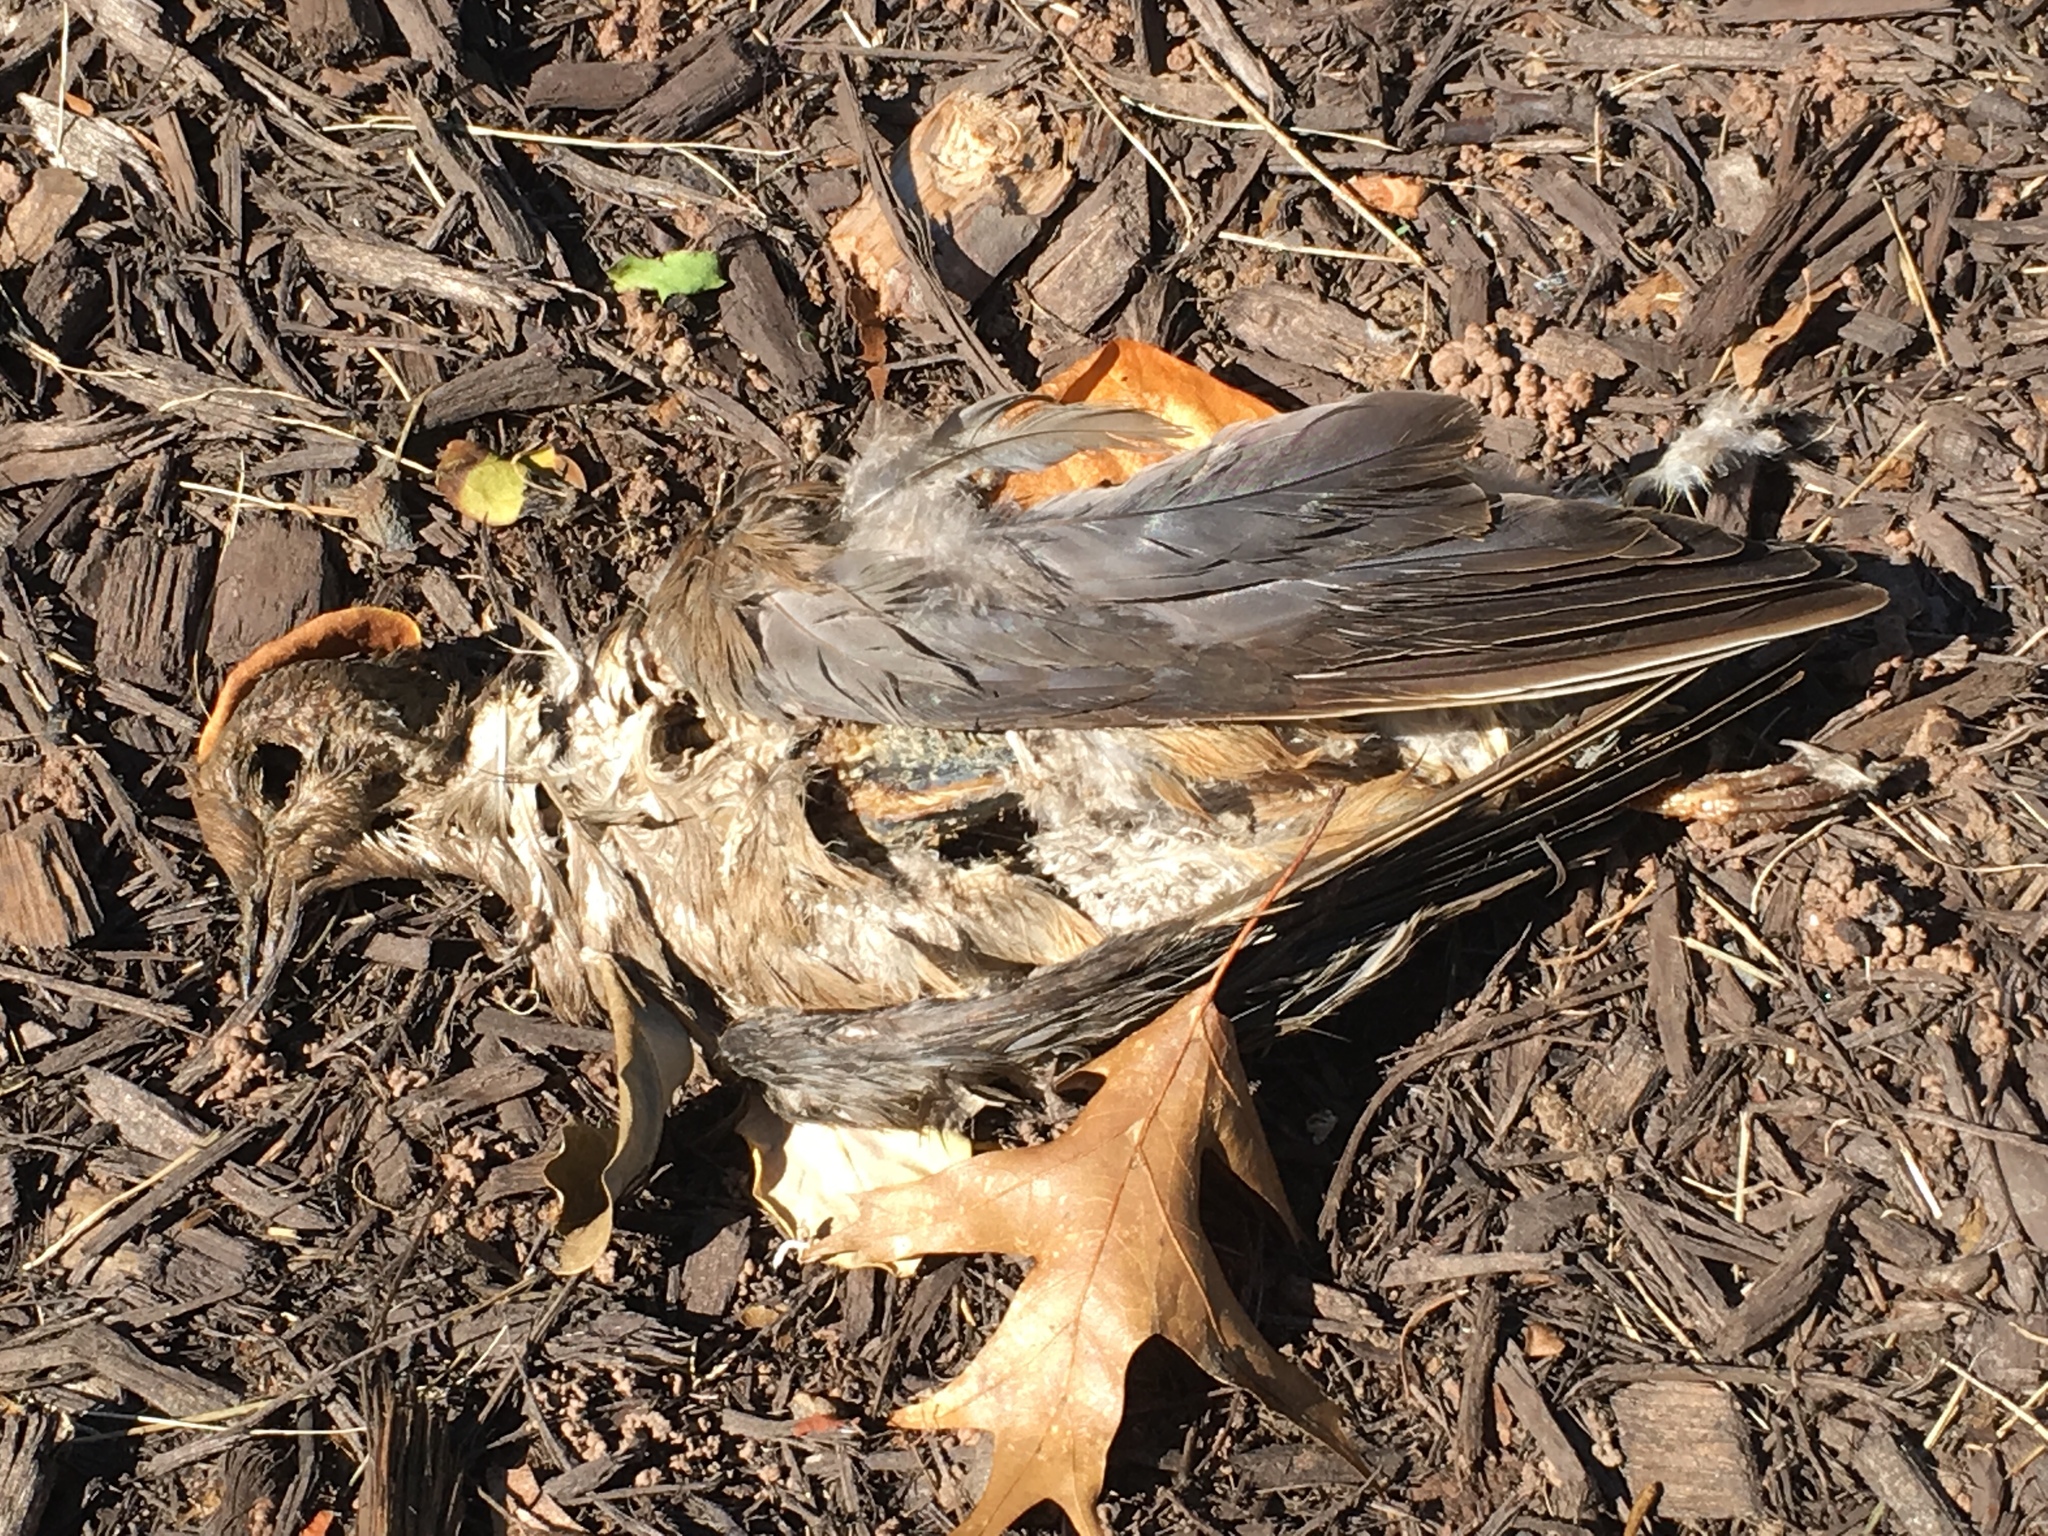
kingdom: Animalia
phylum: Chordata
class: Aves
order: Columbiformes
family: Columbidae
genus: Zenaida
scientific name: Zenaida macroura
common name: Mourning dove
